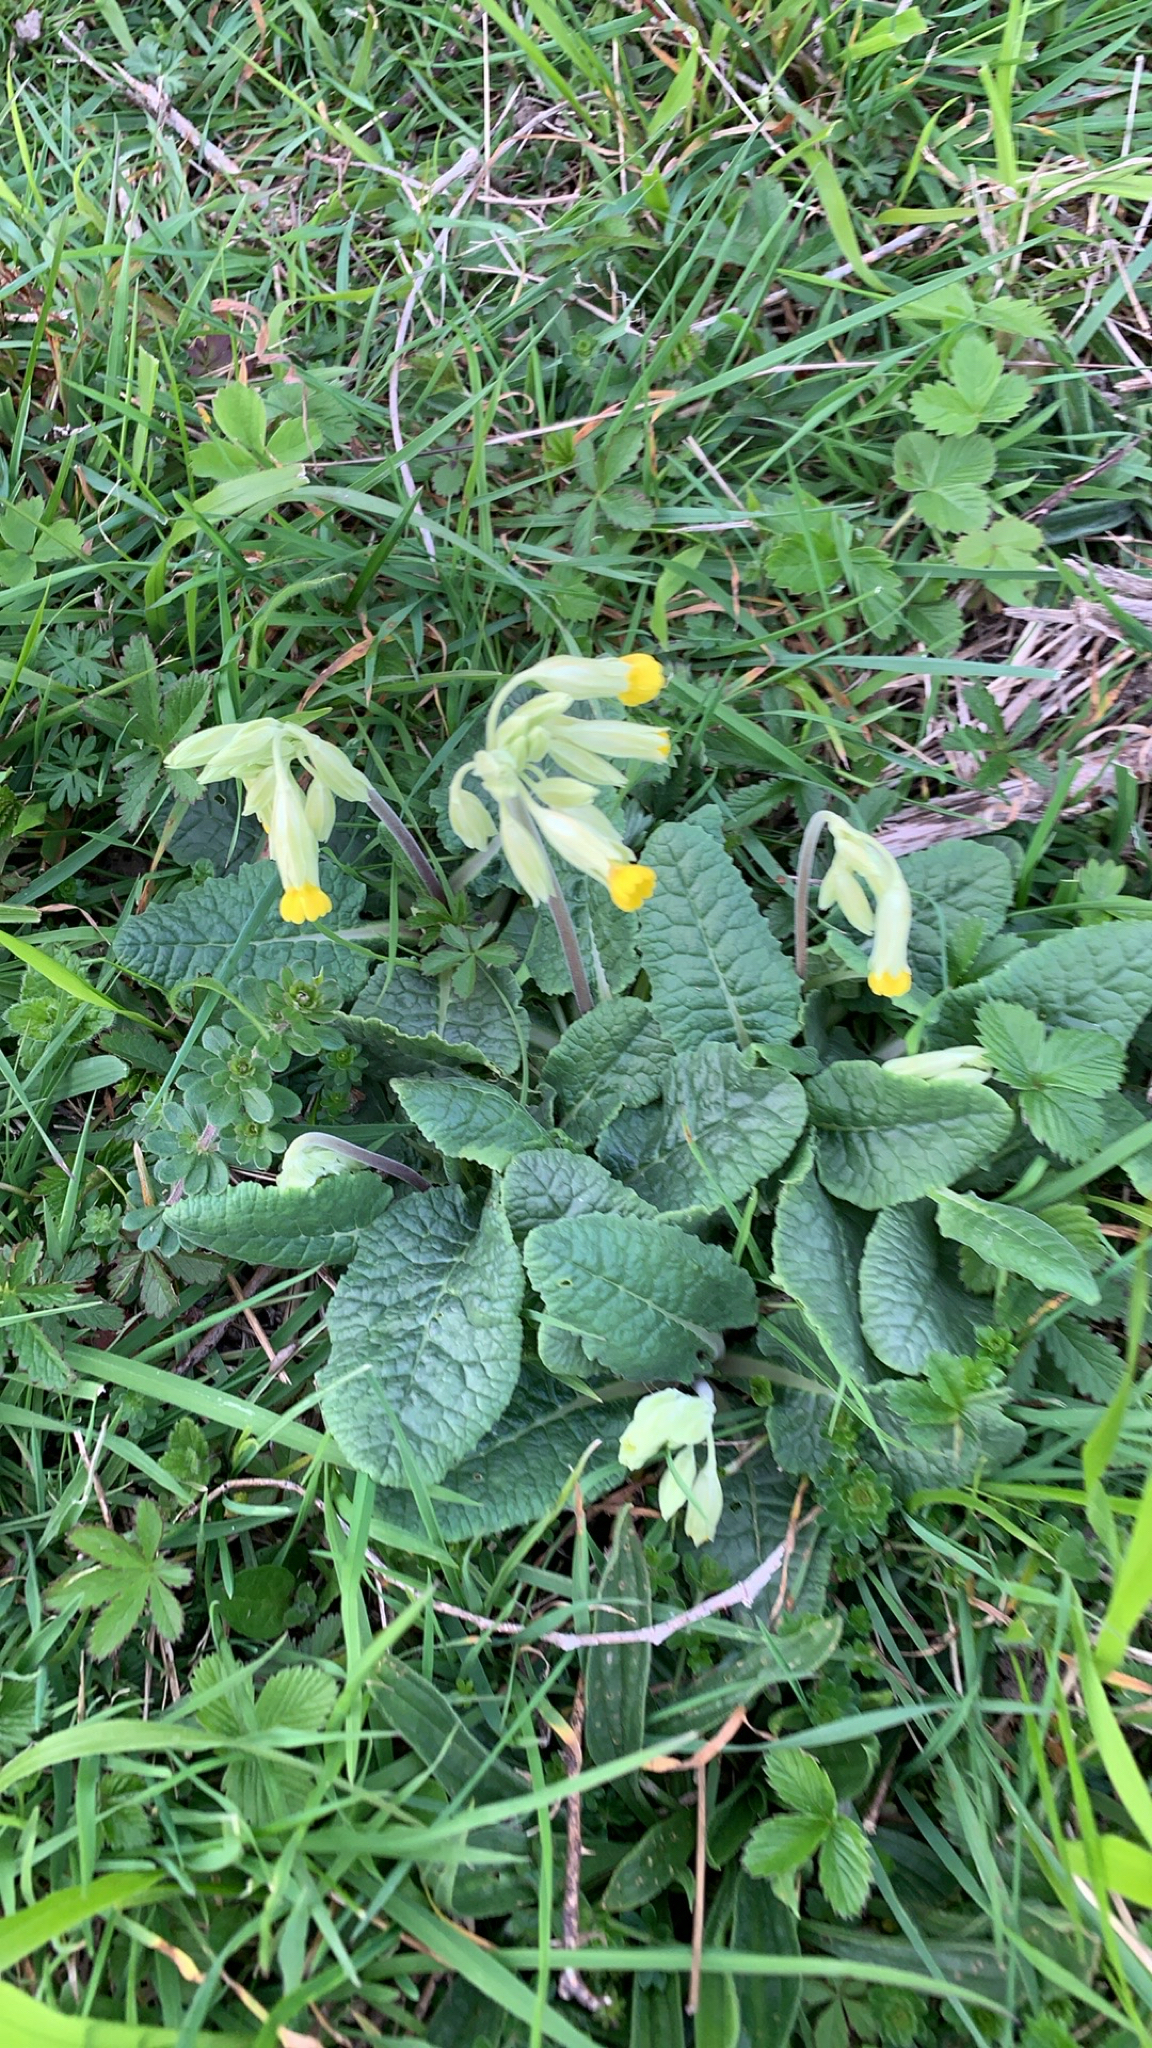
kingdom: Plantae
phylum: Tracheophyta
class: Magnoliopsida
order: Ericales
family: Primulaceae
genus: Primula
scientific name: Primula veris
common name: Cowslip
